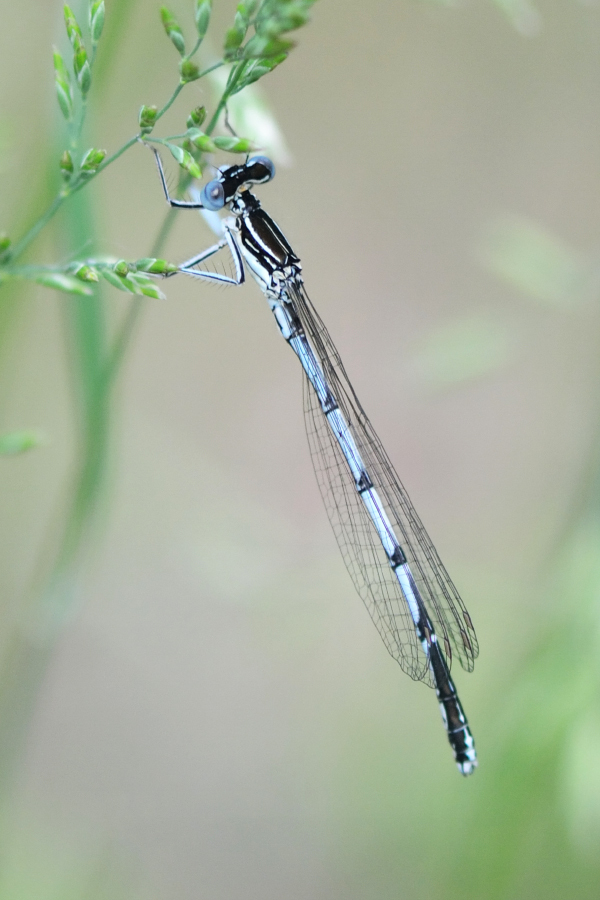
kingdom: Animalia
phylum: Arthropoda
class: Insecta
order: Odonata
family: Platycnemididae
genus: Platycnemis
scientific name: Platycnemis pennipes
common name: White-legged damselfly
